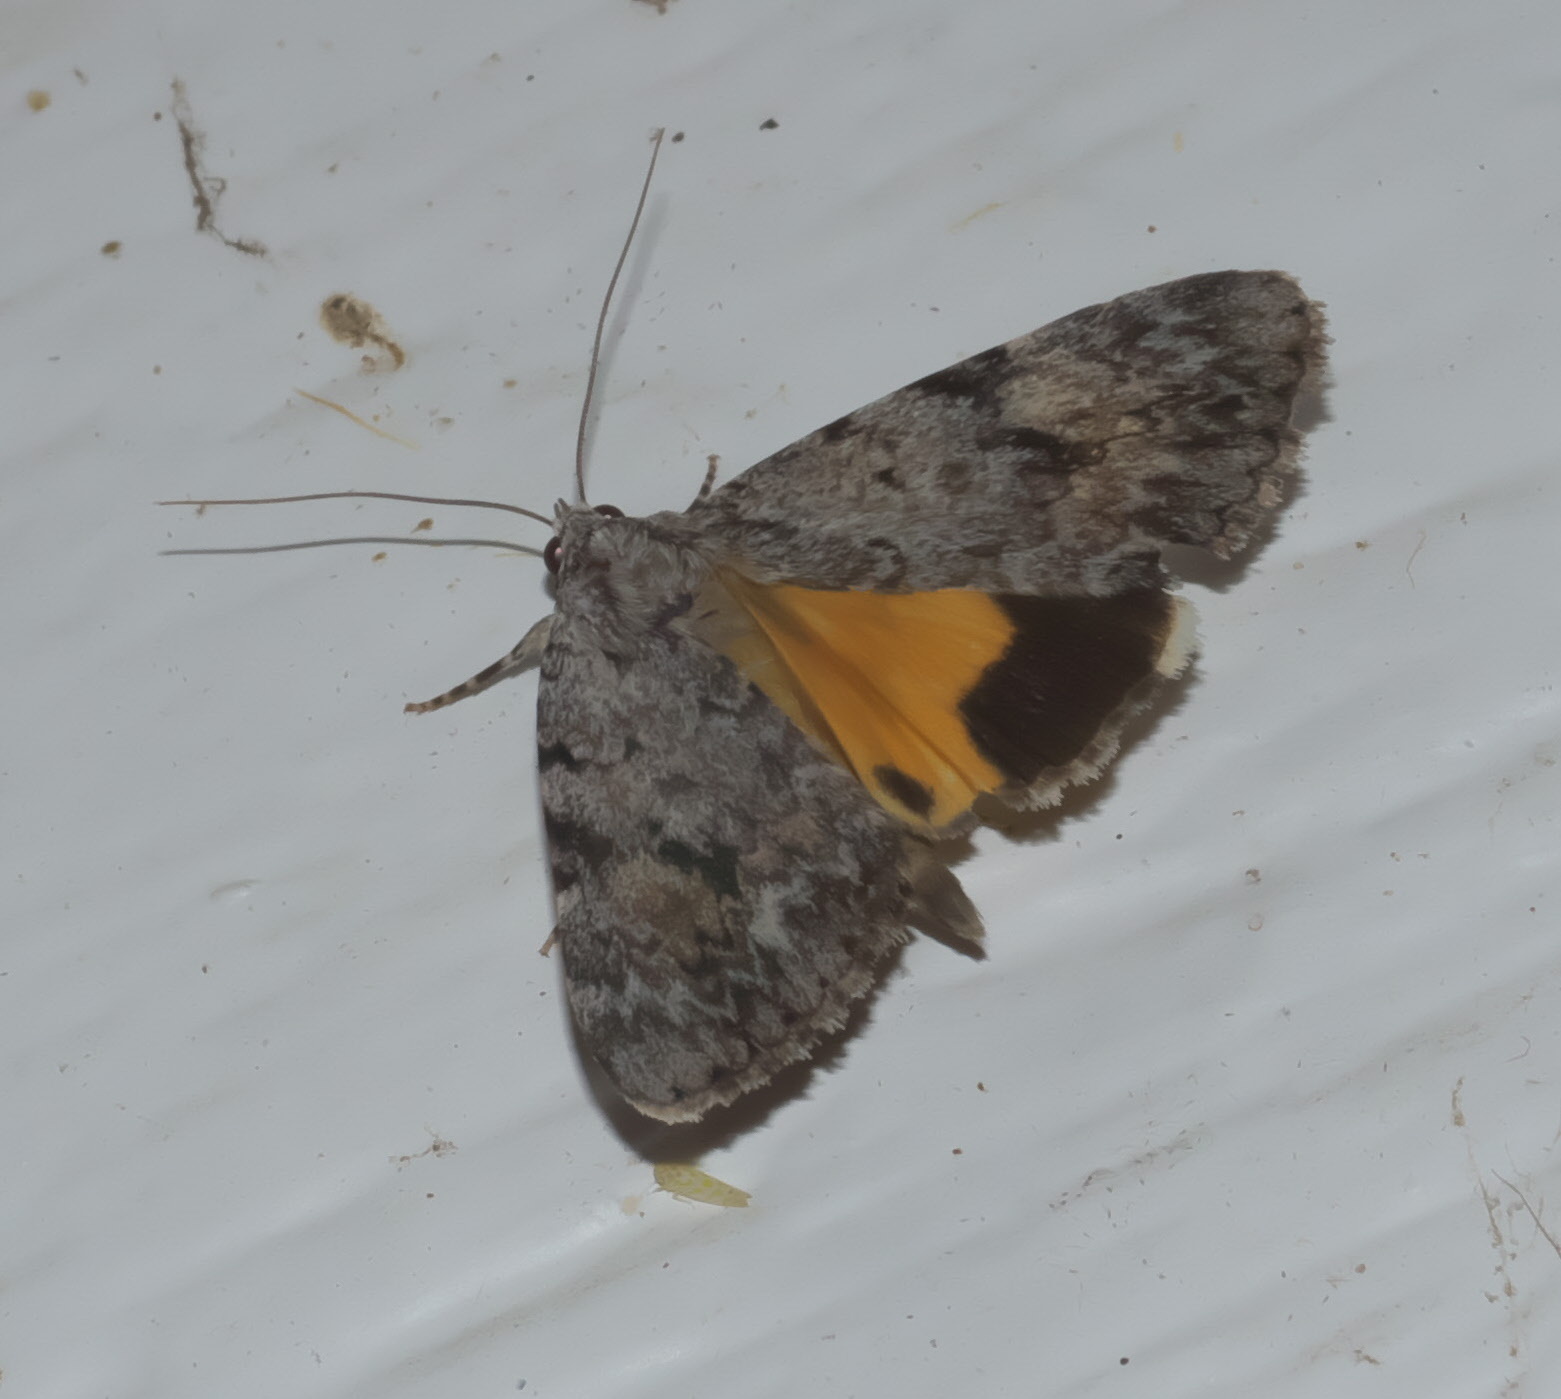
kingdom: Animalia
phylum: Arthropoda
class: Insecta
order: Lepidoptera
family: Erebidae
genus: Catocala
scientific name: Catocala amica
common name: Girlfriend underwing
